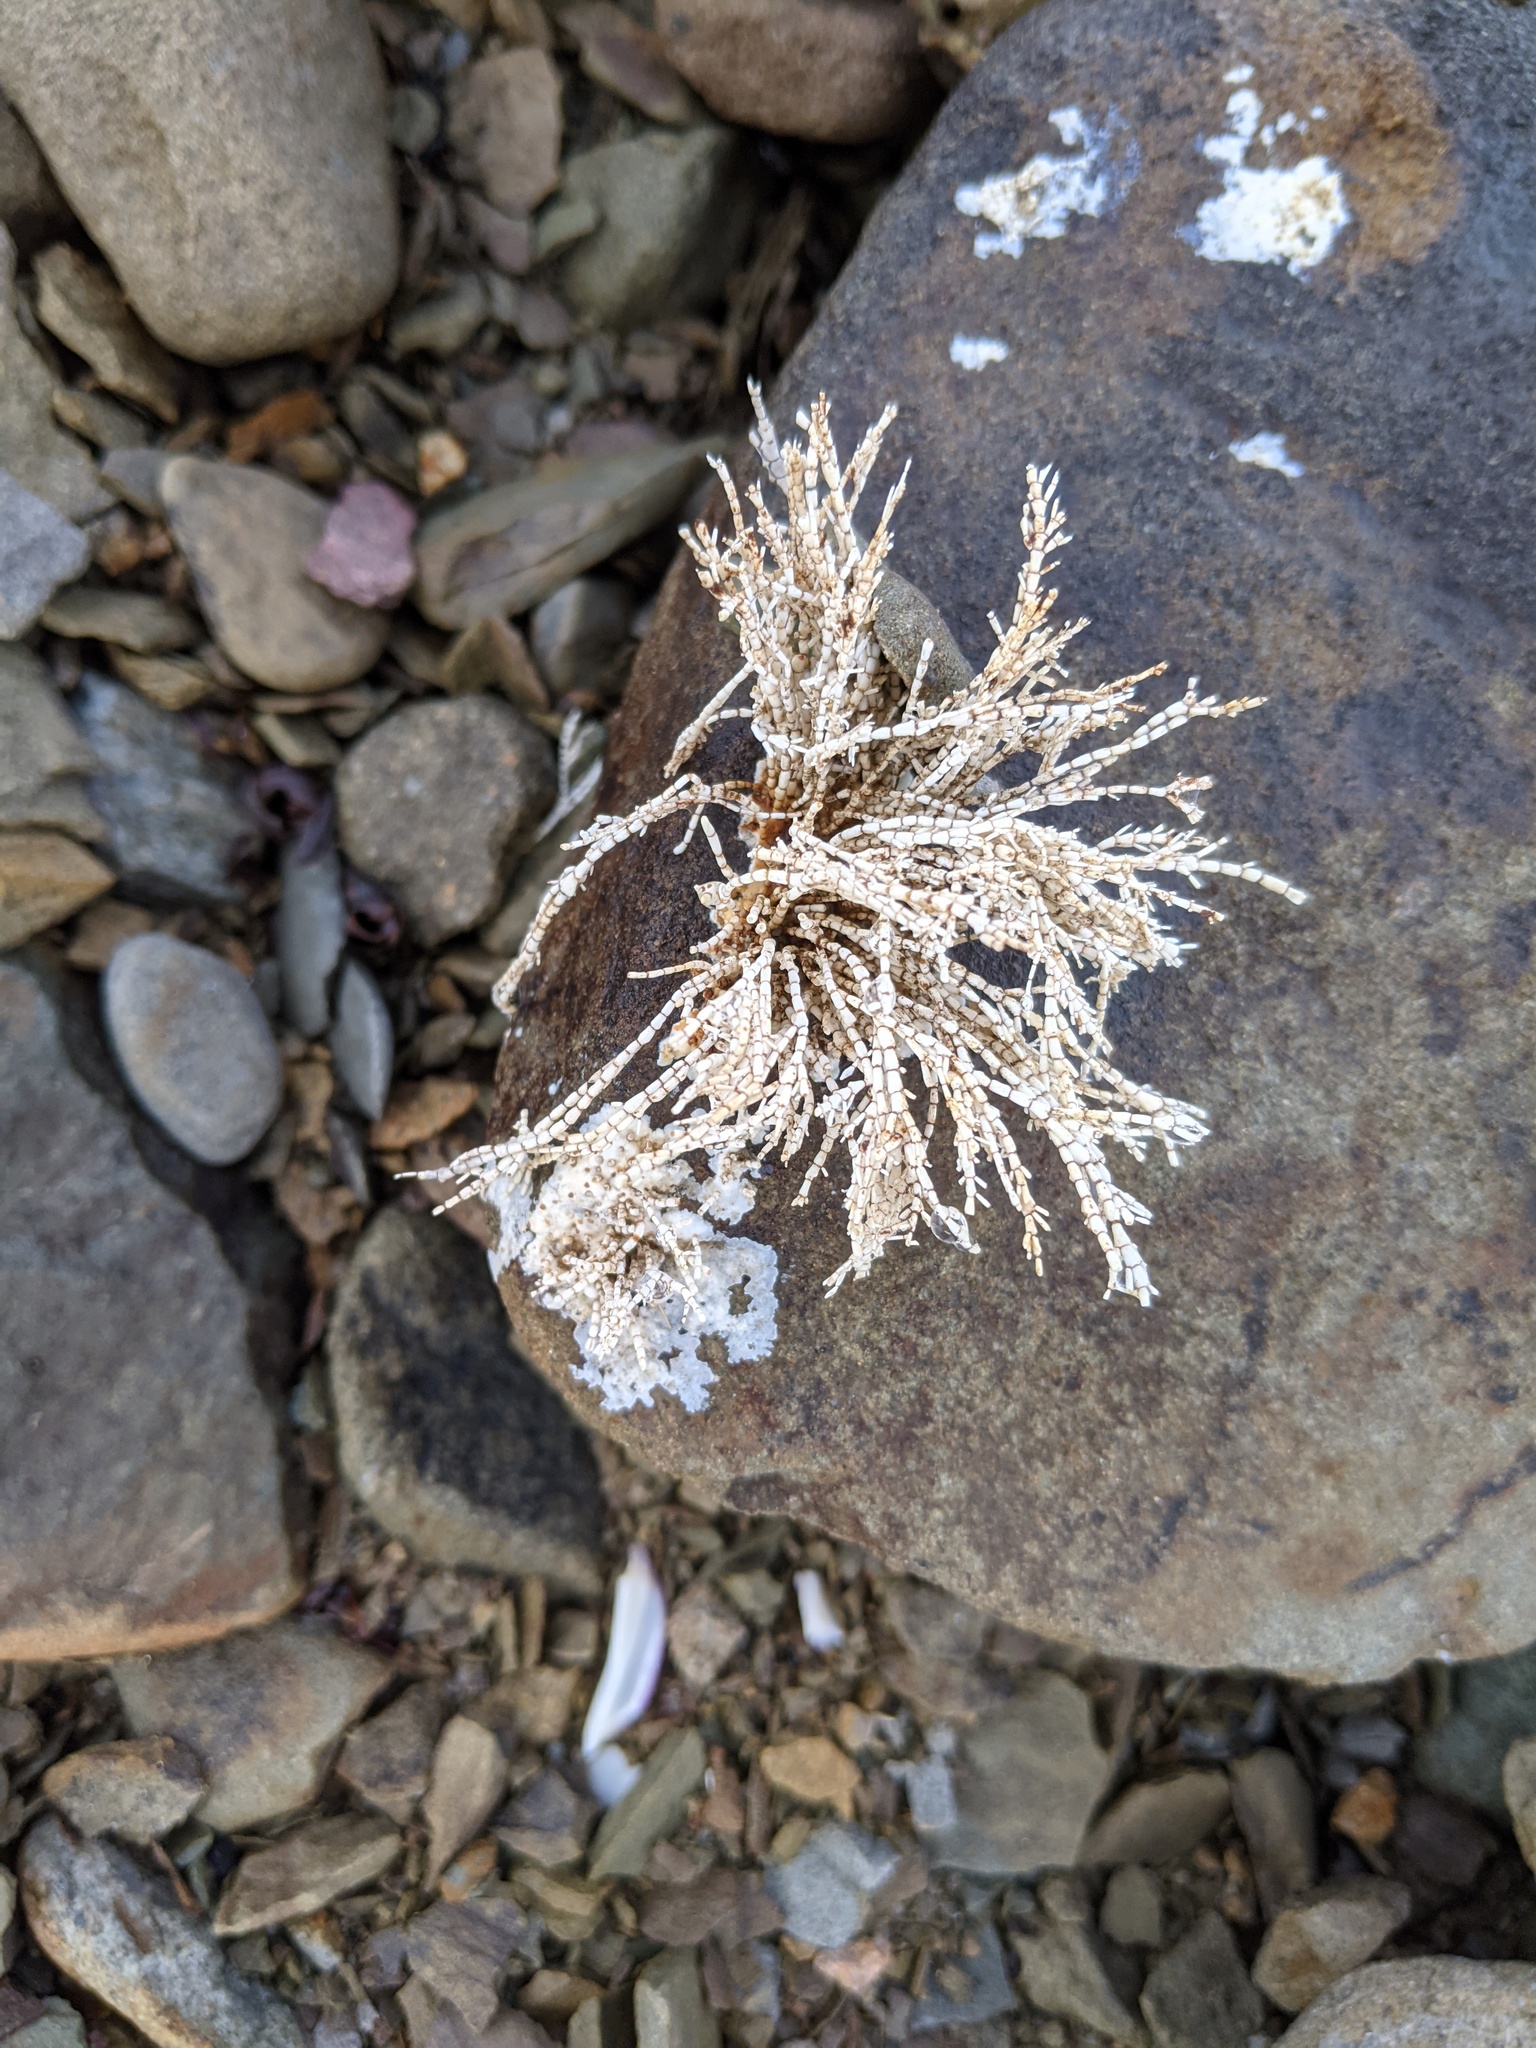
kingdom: Plantae
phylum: Rhodophyta
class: Florideophyceae
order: Corallinales
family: Corallinaceae
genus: Corallina
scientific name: Corallina officinalis
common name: Coral weed
